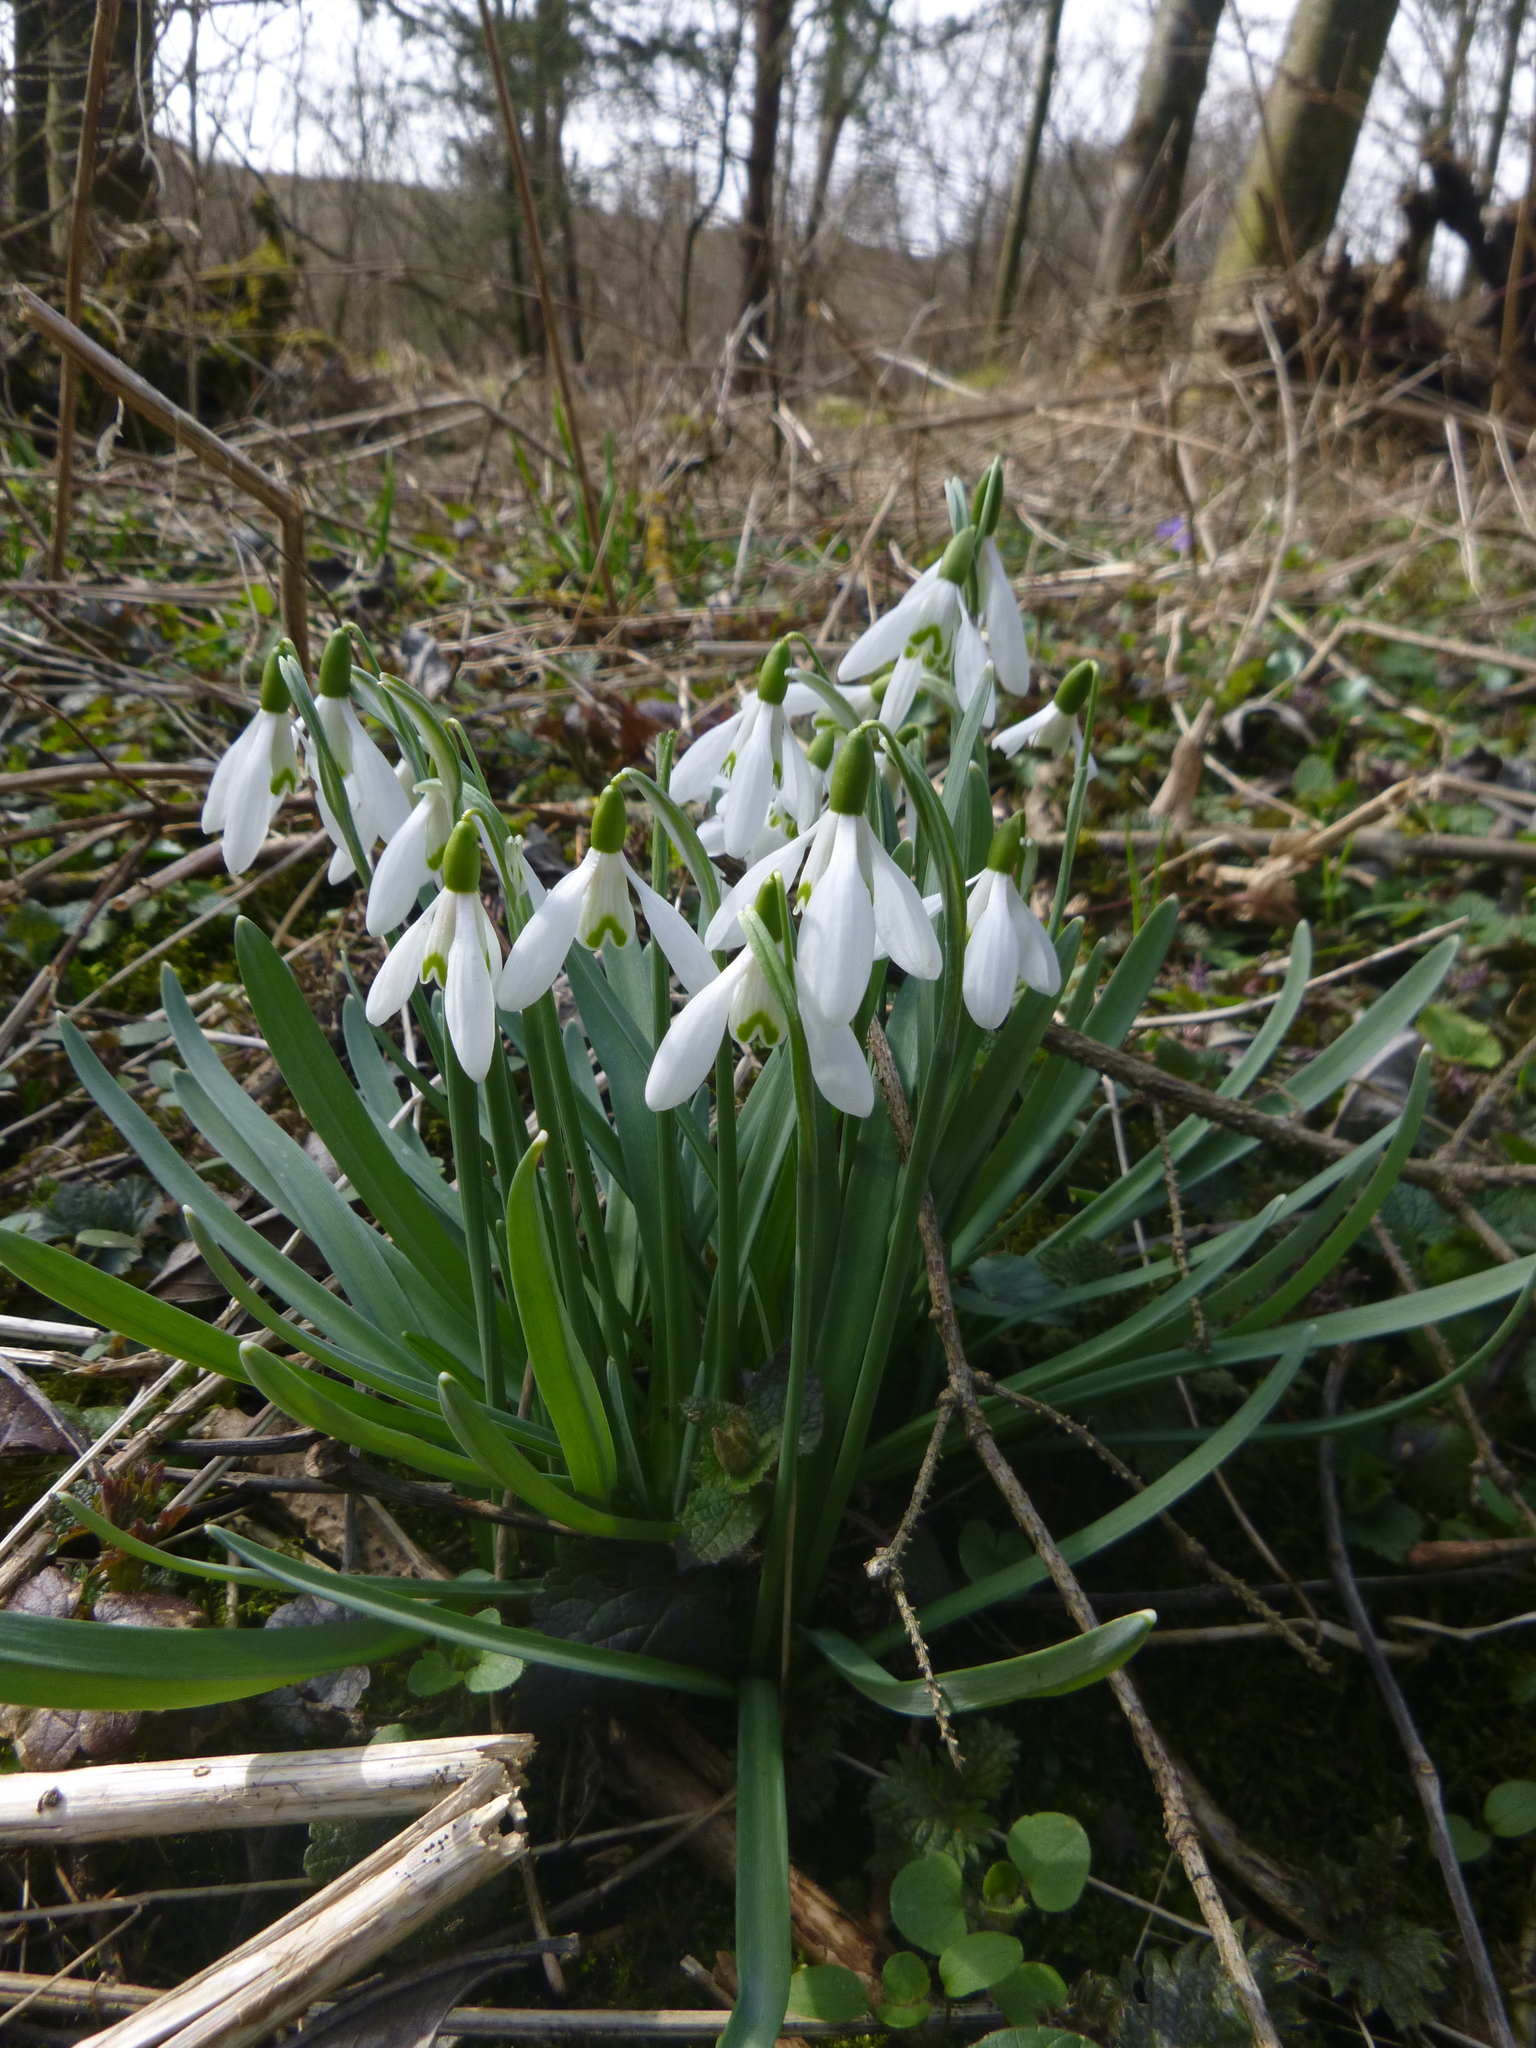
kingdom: Plantae
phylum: Tracheophyta
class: Liliopsida
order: Asparagales
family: Amaryllidaceae
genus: Galanthus
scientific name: Galanthus nivalis
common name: Snowdrop
